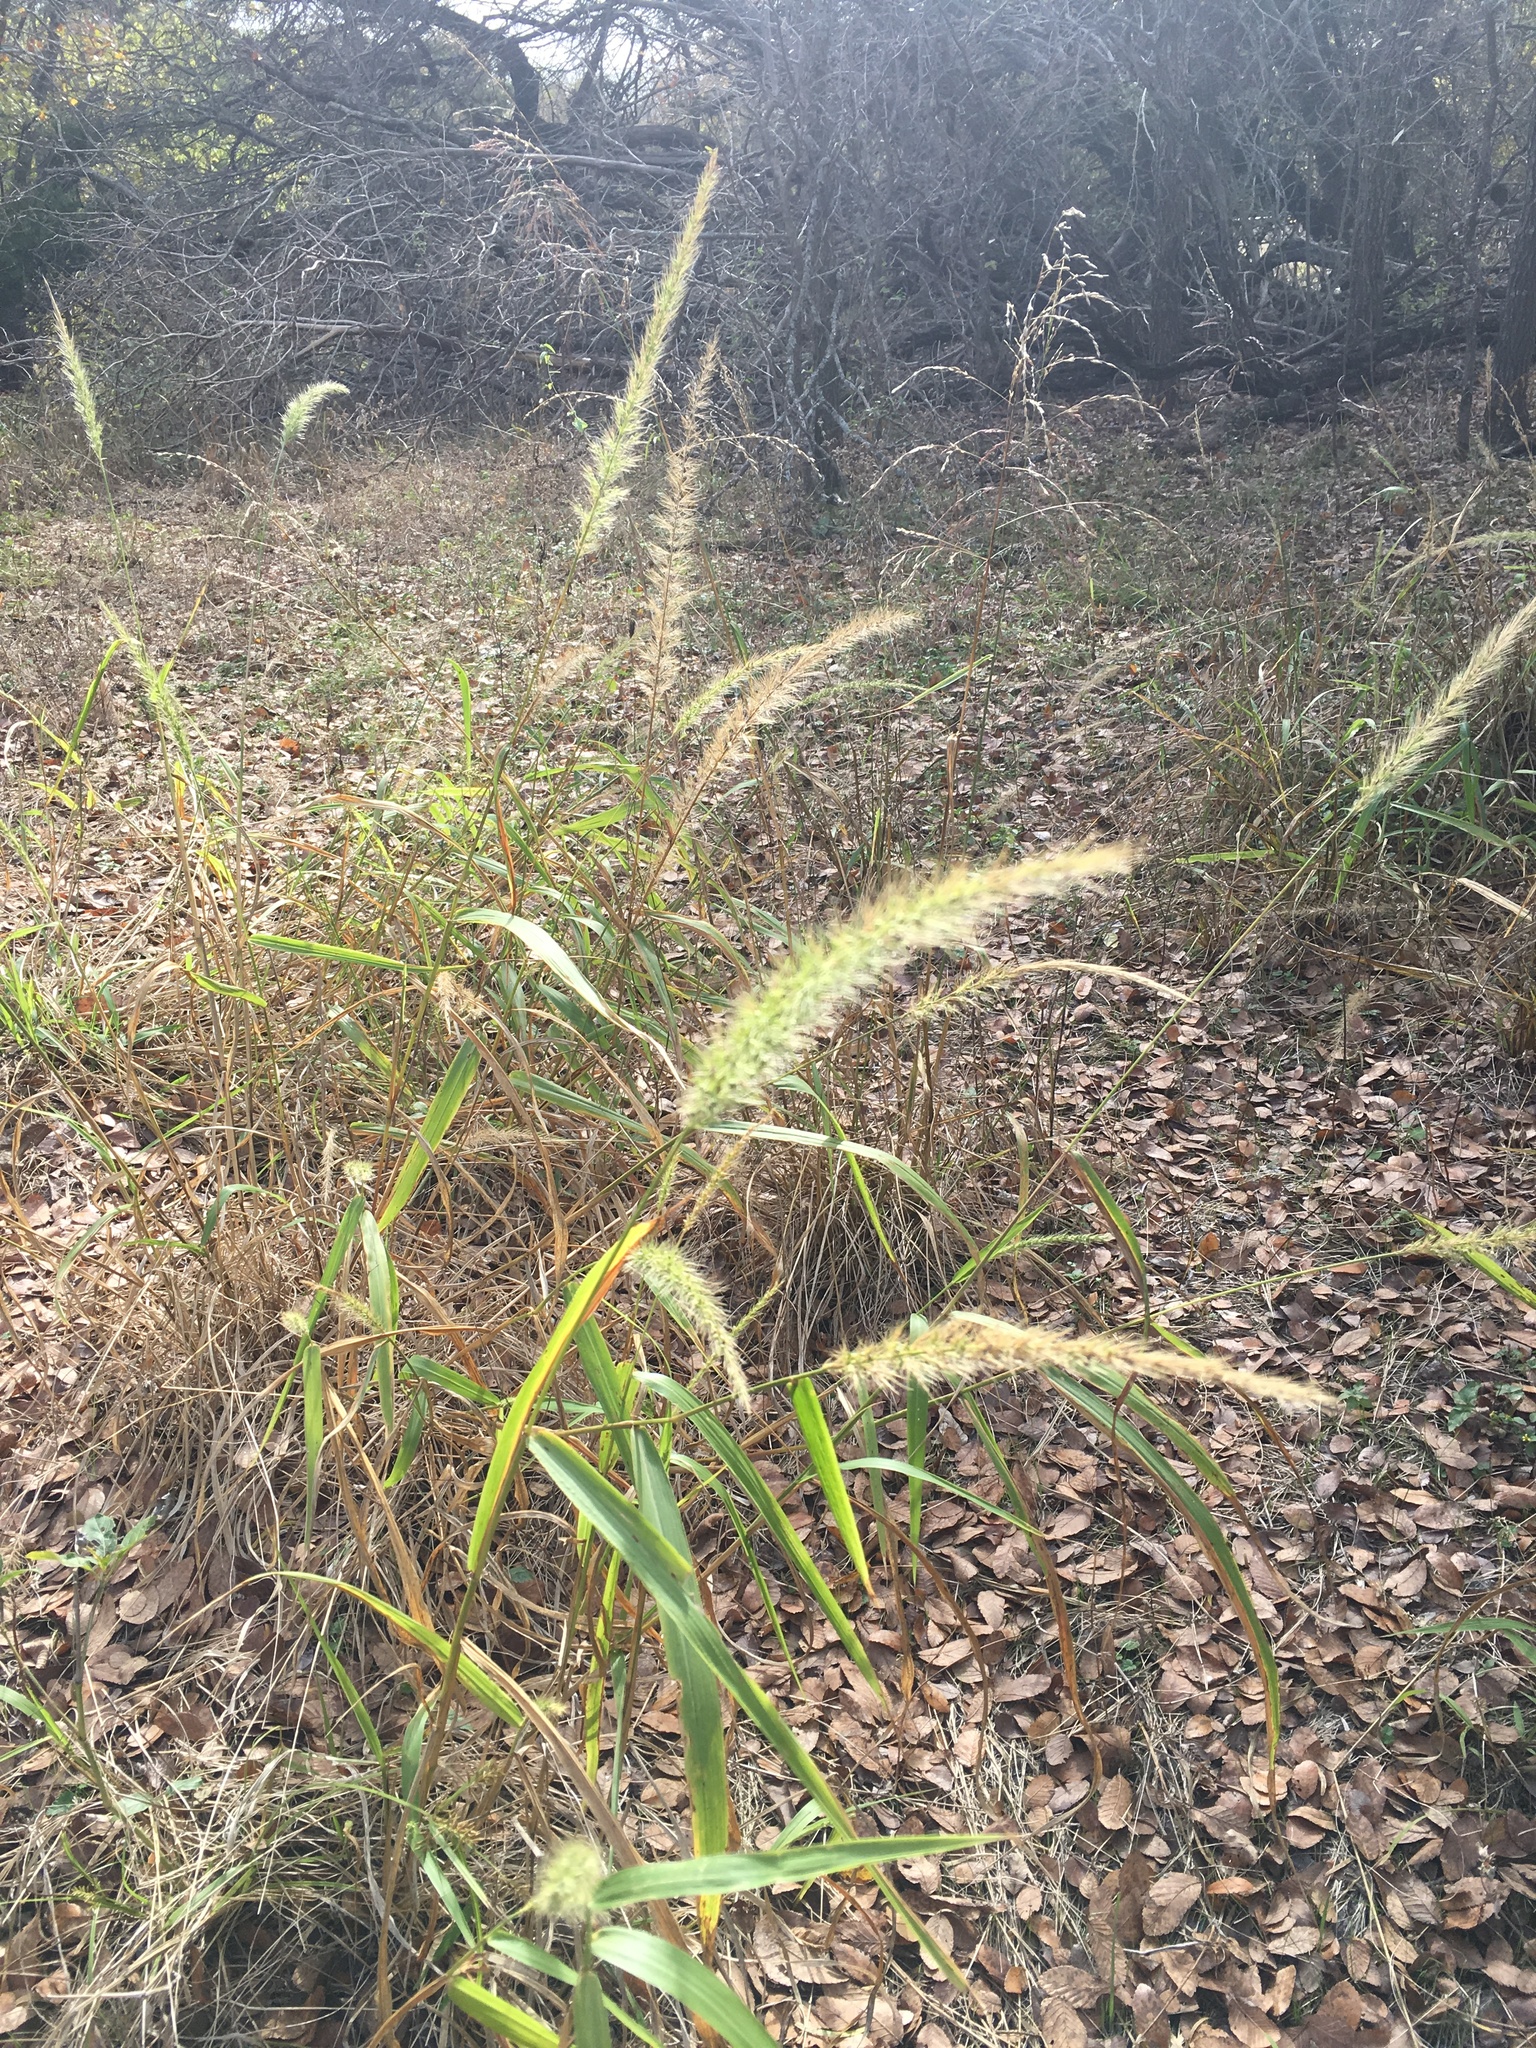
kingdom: Plantae
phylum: Tracheophyta
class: Liliopsida
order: Poales
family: Poaceae
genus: Setaria
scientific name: Setaria scheelei
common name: Southwestern bristle grass
